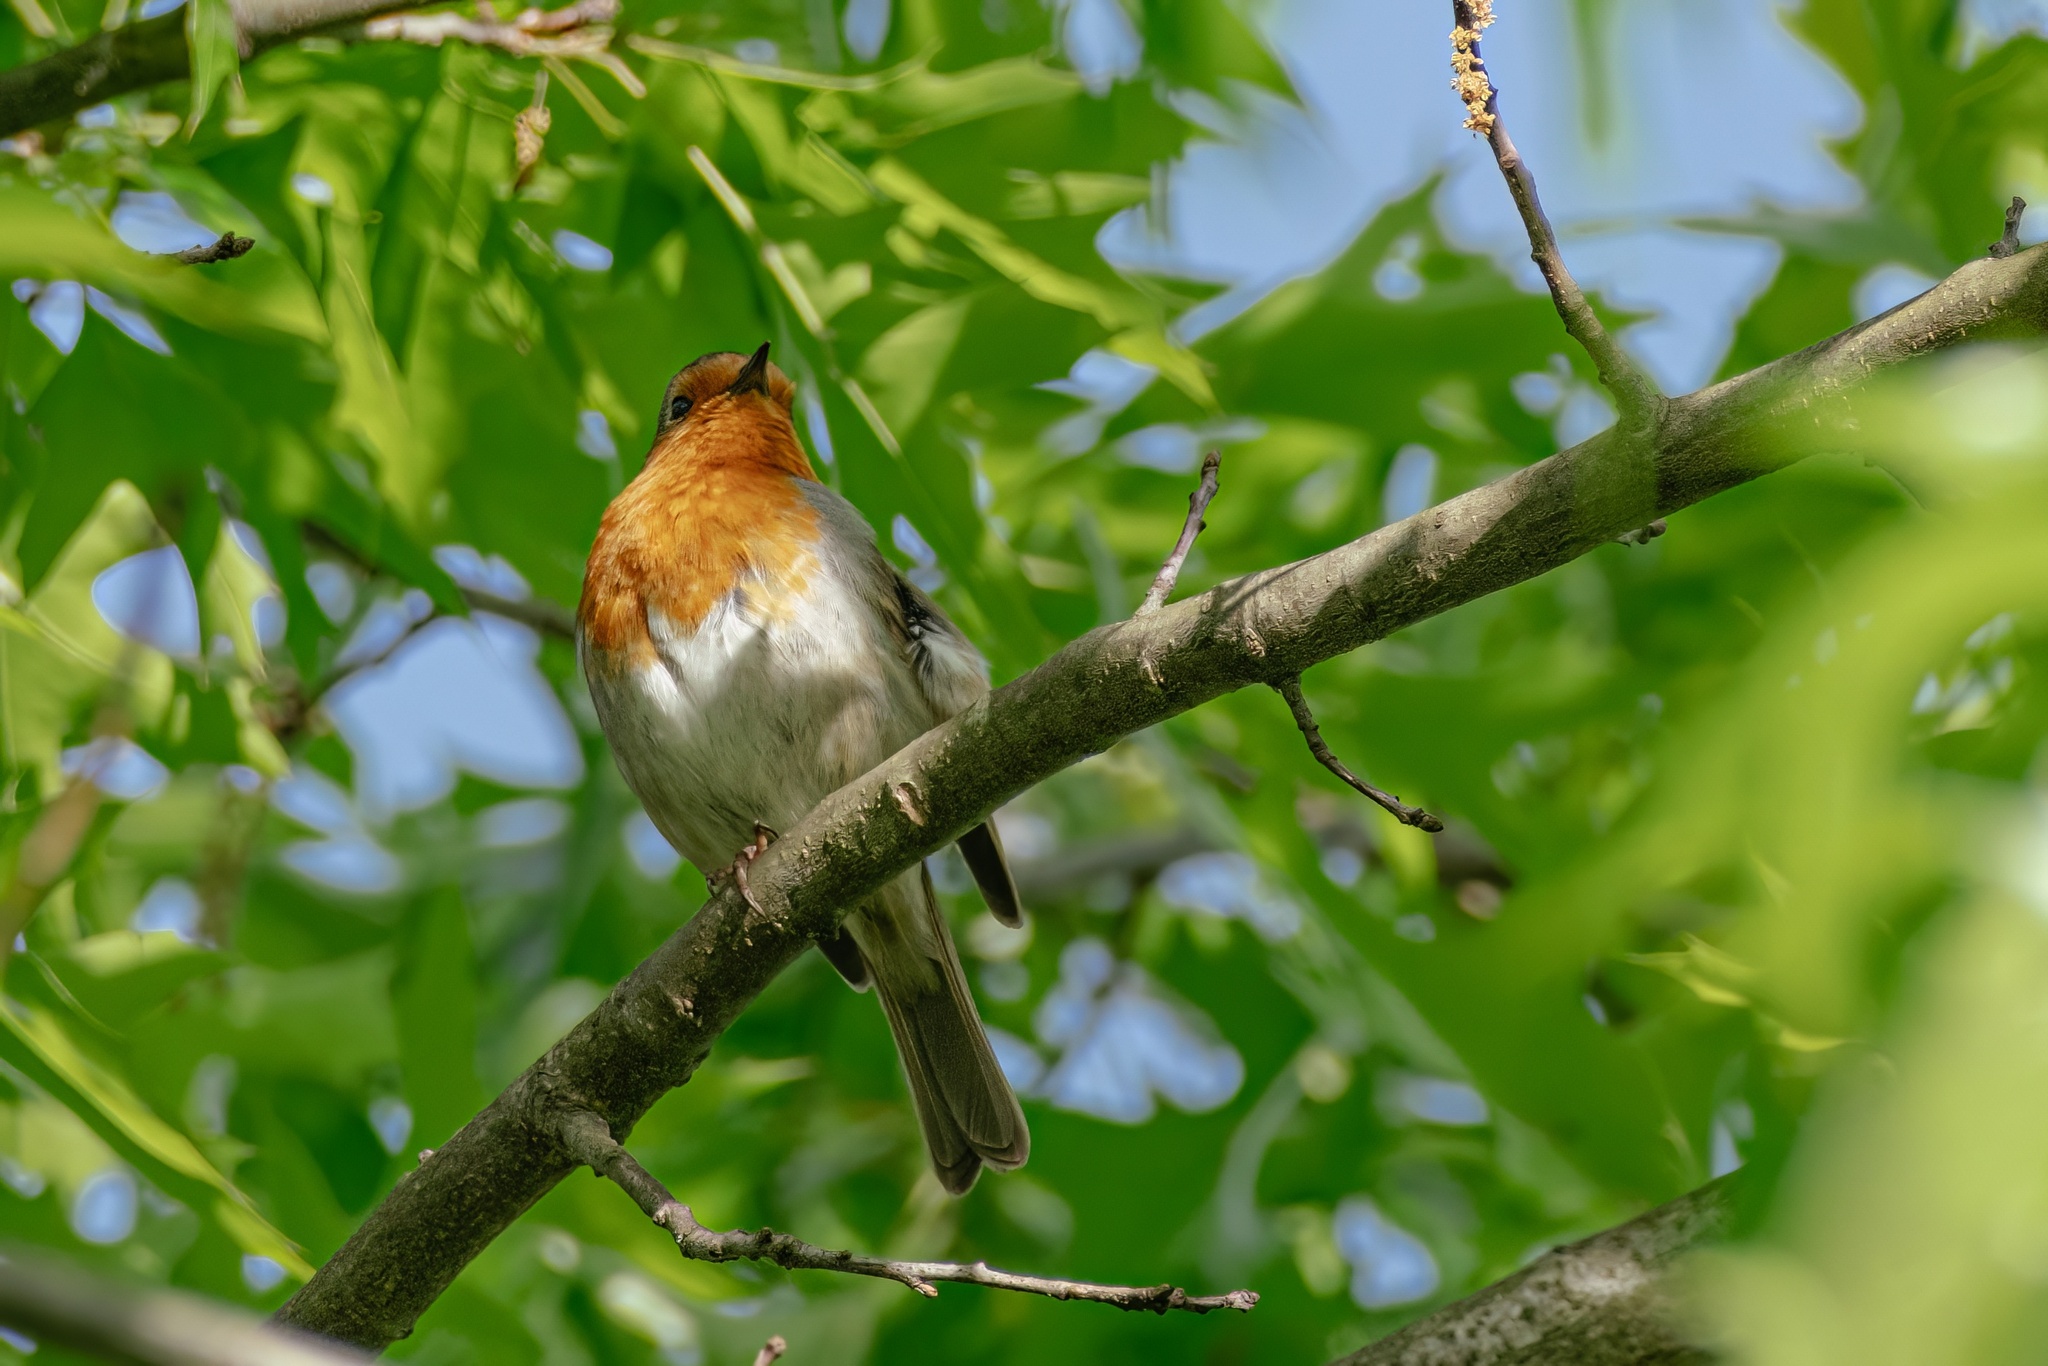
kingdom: Animalia
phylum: Chordata
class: Aves
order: Passeriformes
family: Muscicapidae
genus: Erithacus
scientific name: Erithacus rubecula
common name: European robin
